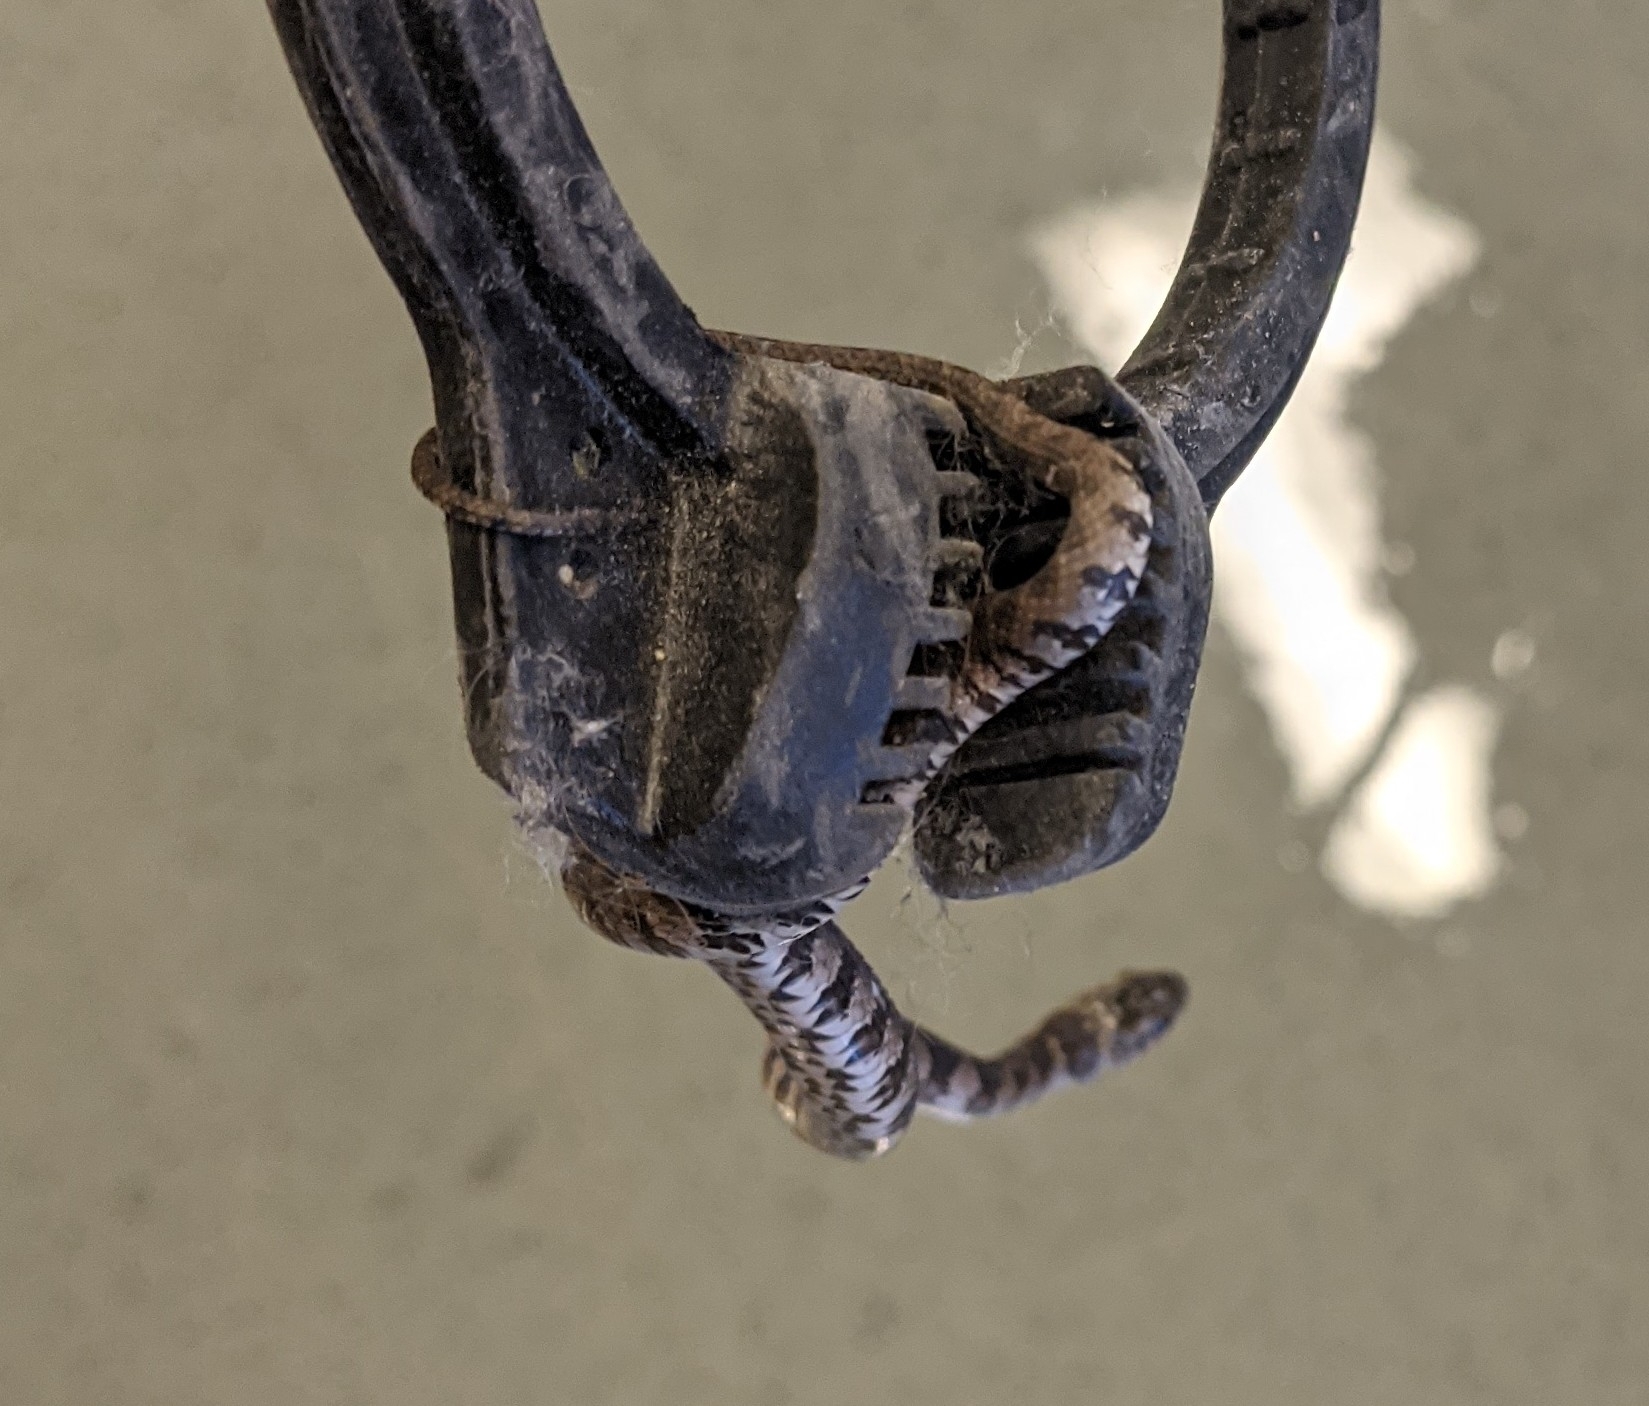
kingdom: Animalia
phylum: Chordata
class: Squamata
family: Colubridae
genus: Nerodia
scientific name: Nerodia sipedon
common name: Northern water snake
